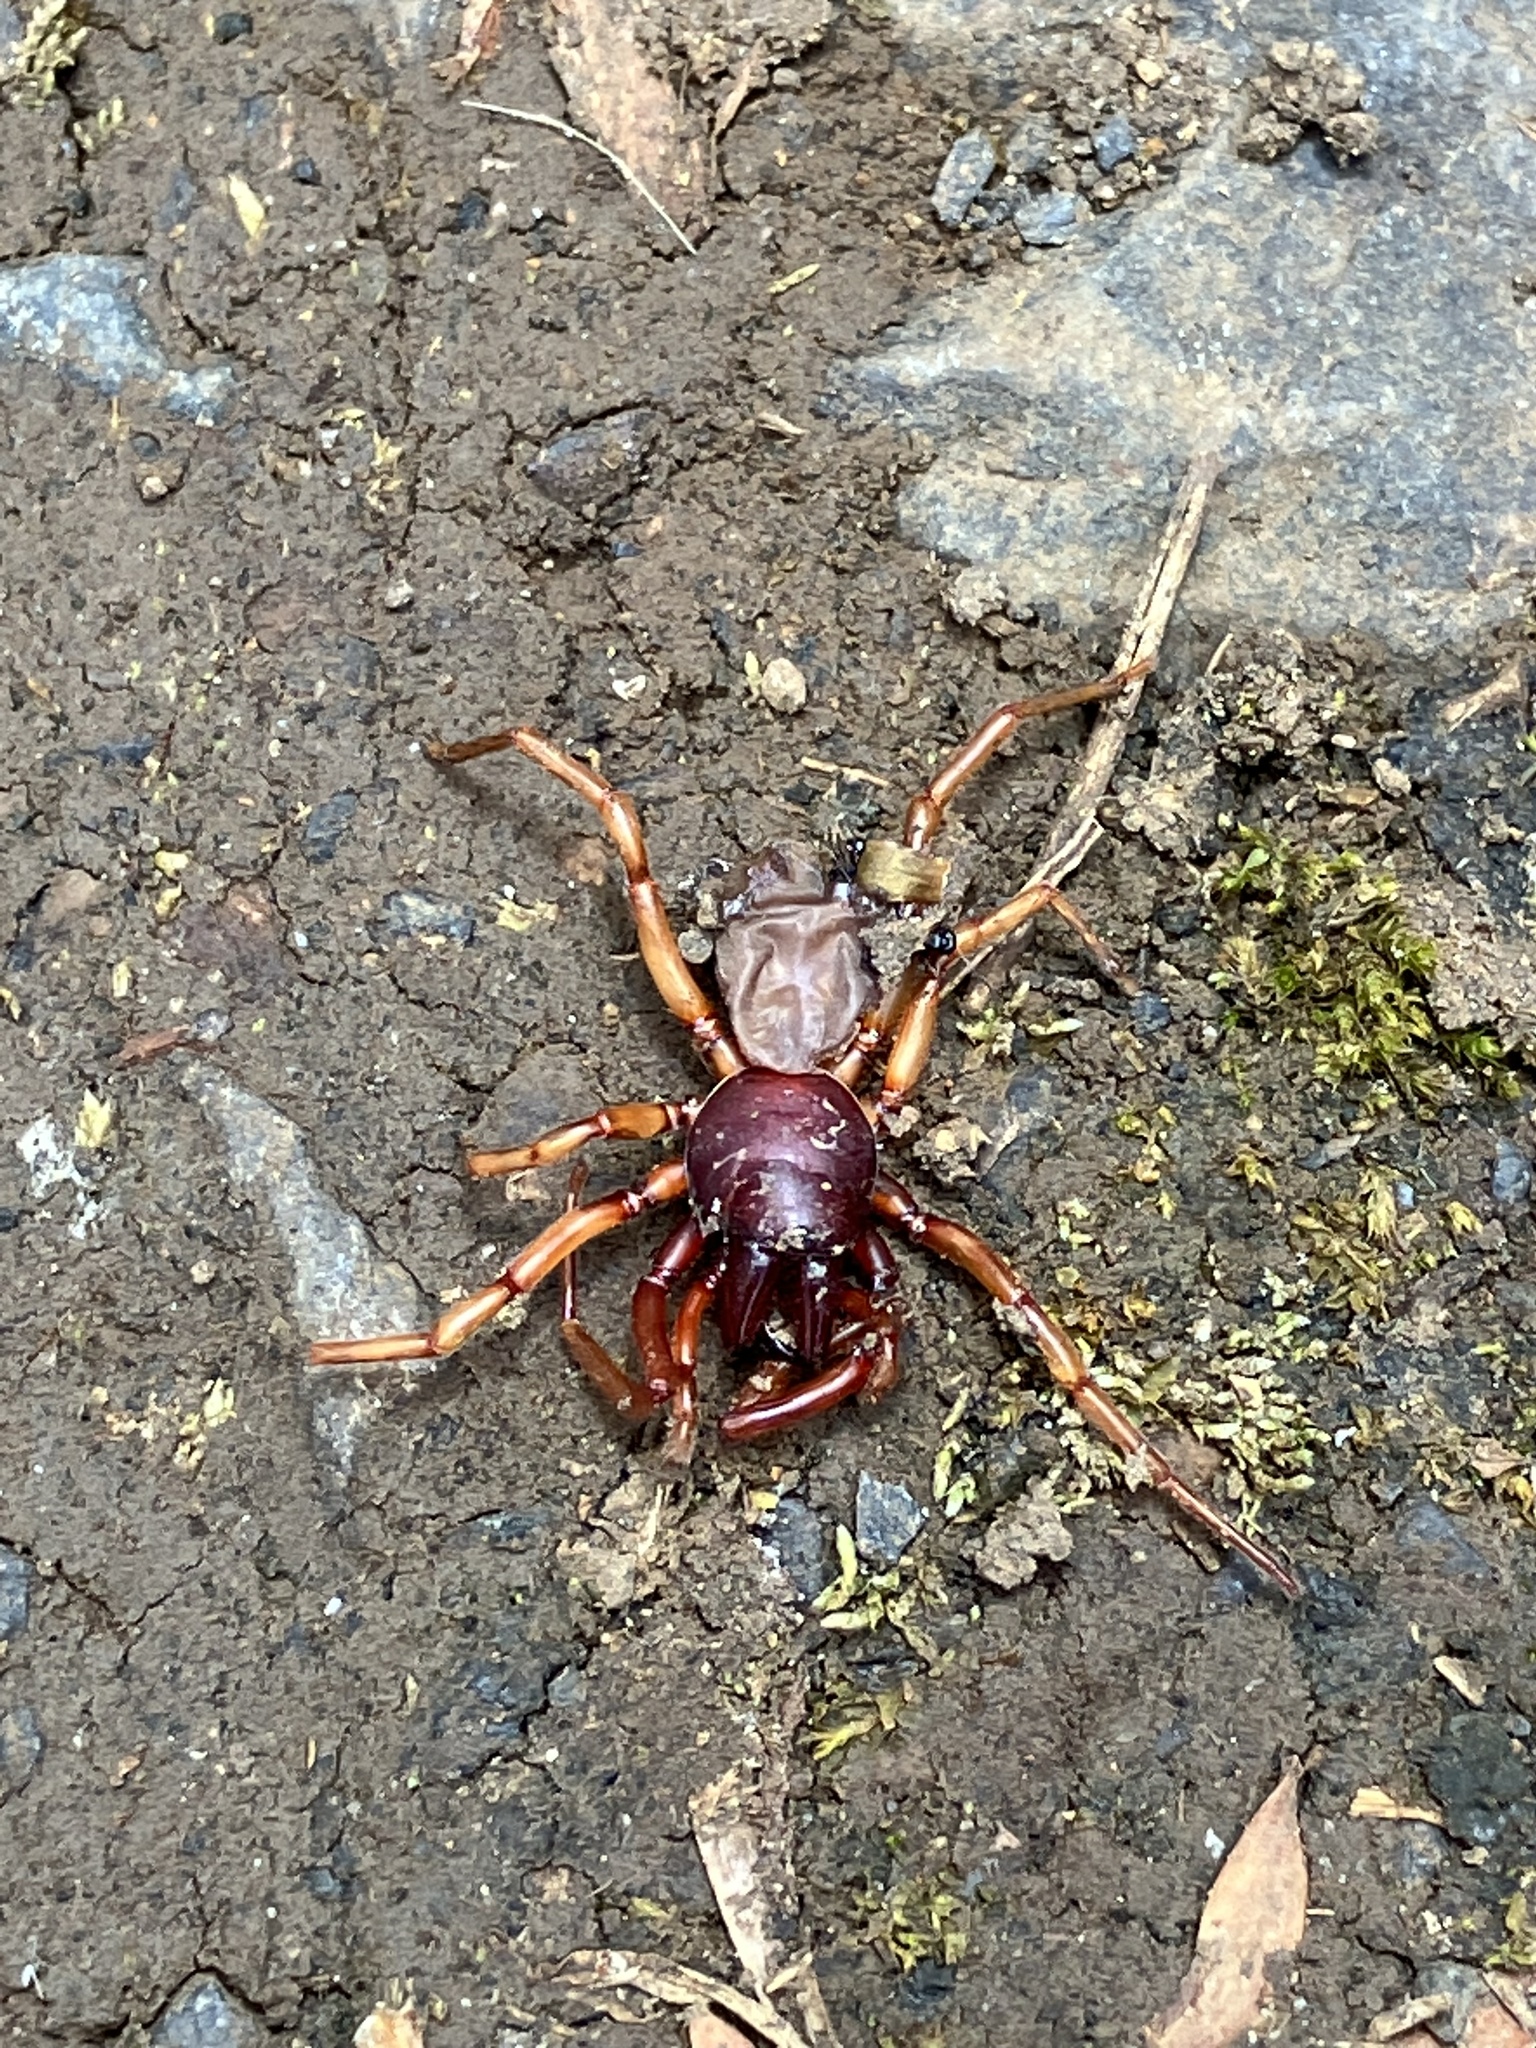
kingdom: Animalia
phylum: Arthropoda
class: Arachnida
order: Araneae
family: Dysderidae
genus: Dysdera
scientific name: Dysdera crocata
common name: Woodlouse spider
